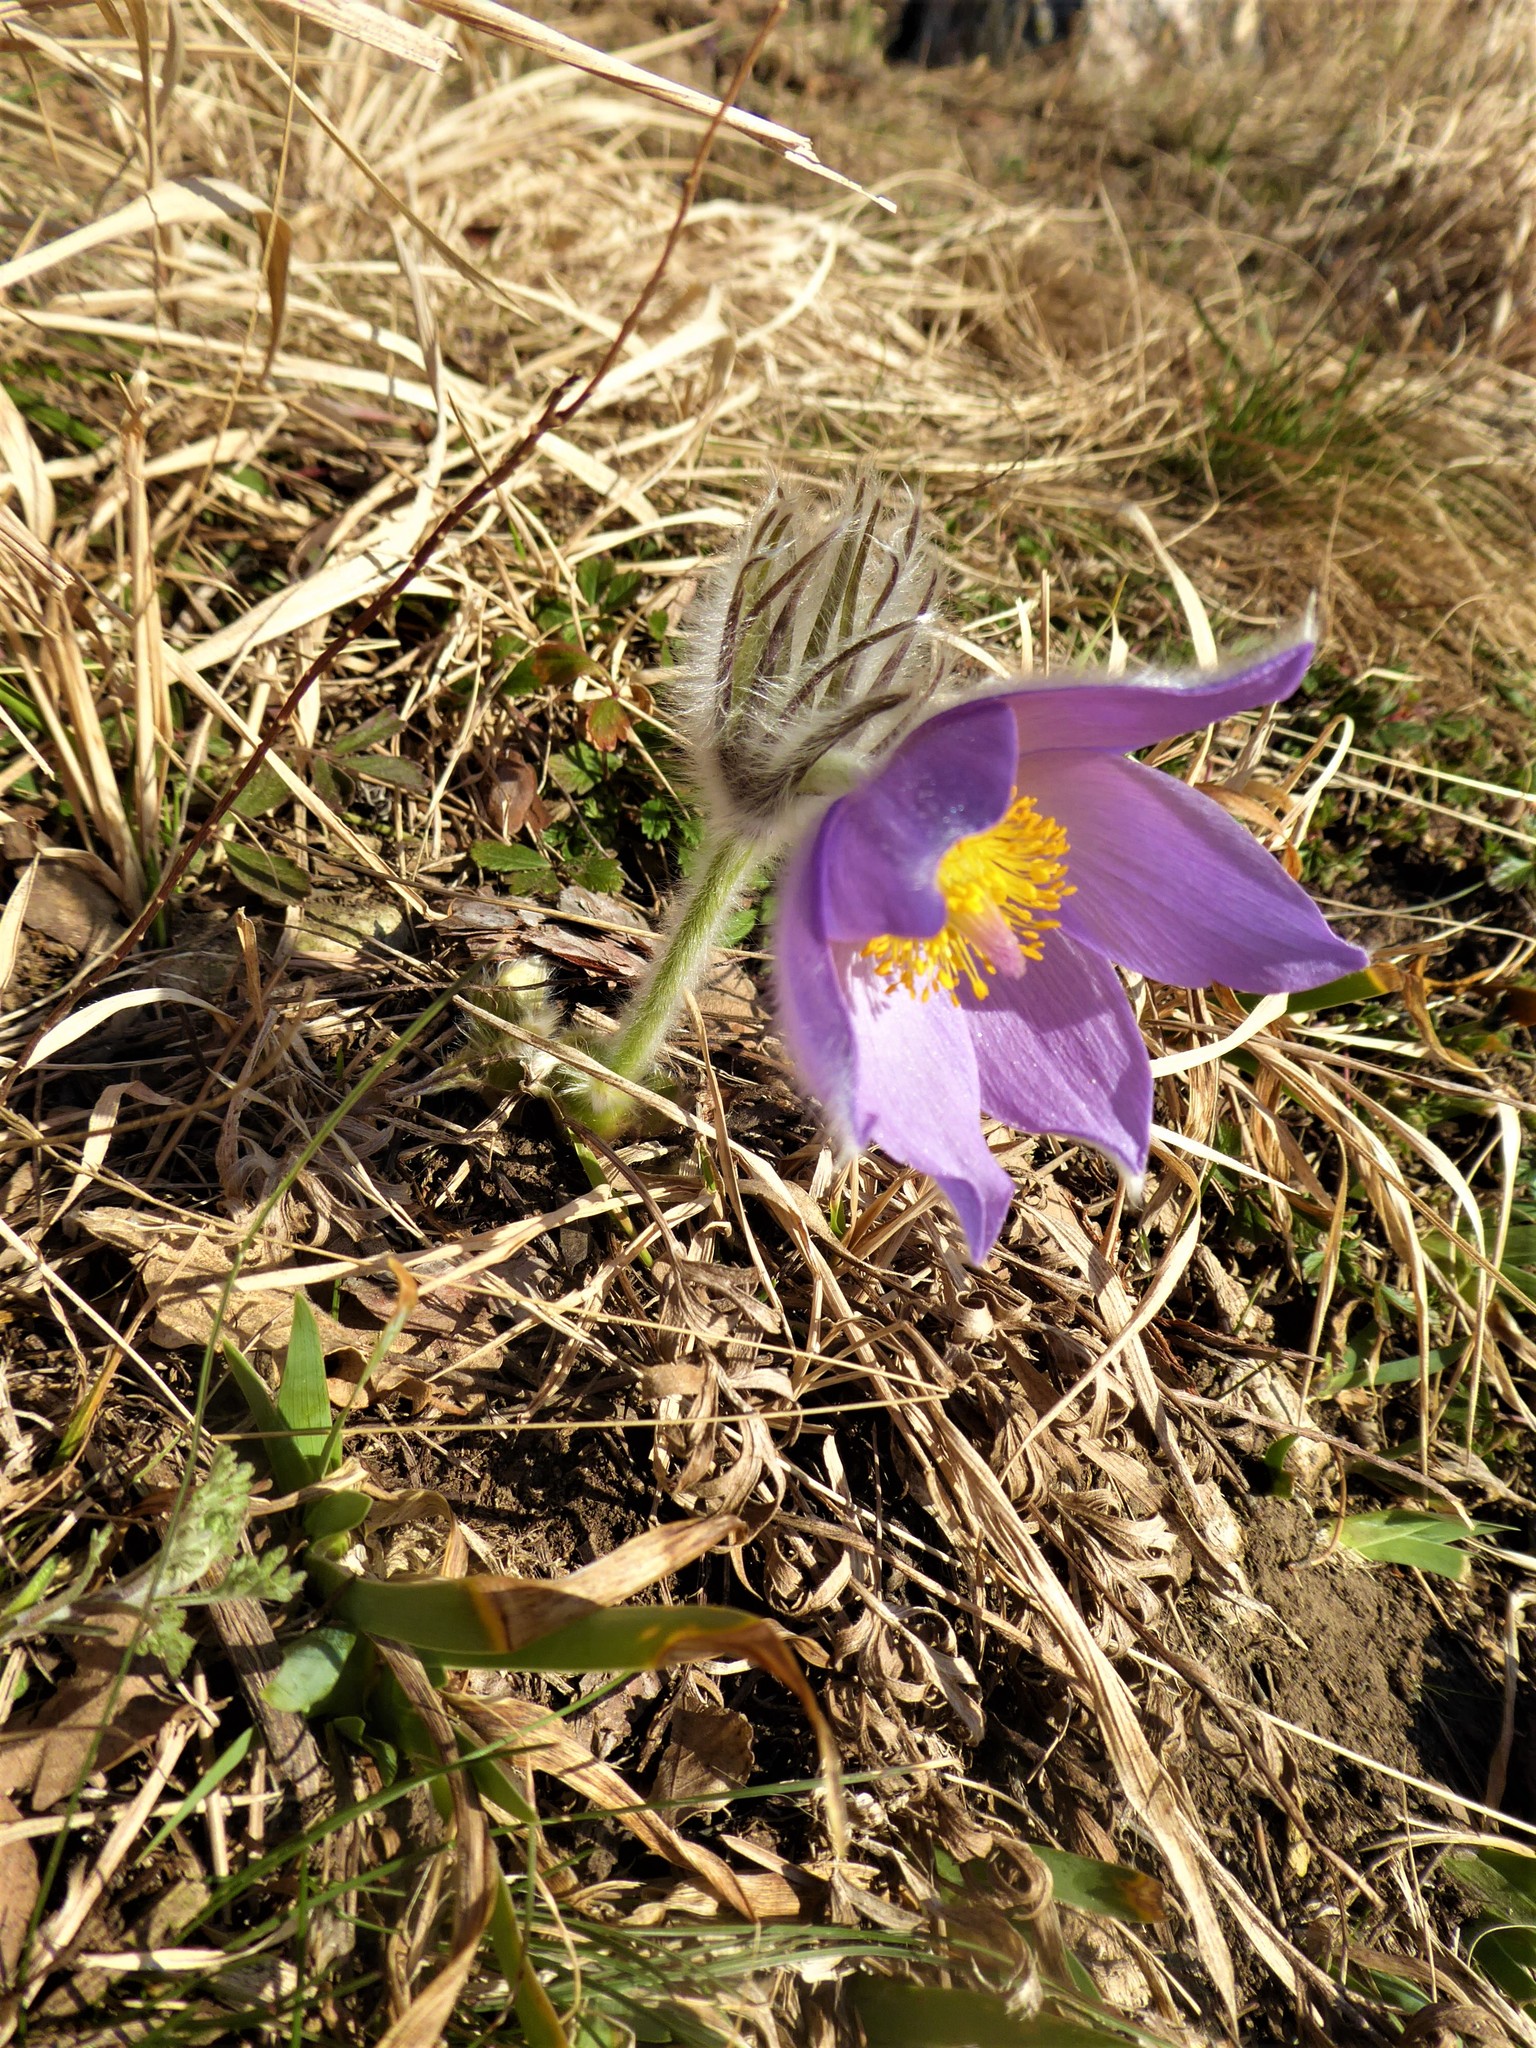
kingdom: Plantae
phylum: Tracheophyta
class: Magnoliopsida
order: Ranunculales
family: Ranunculaceae
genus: Pulsatilla
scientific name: Pulsatilla grandis
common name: Greater pasque flower
